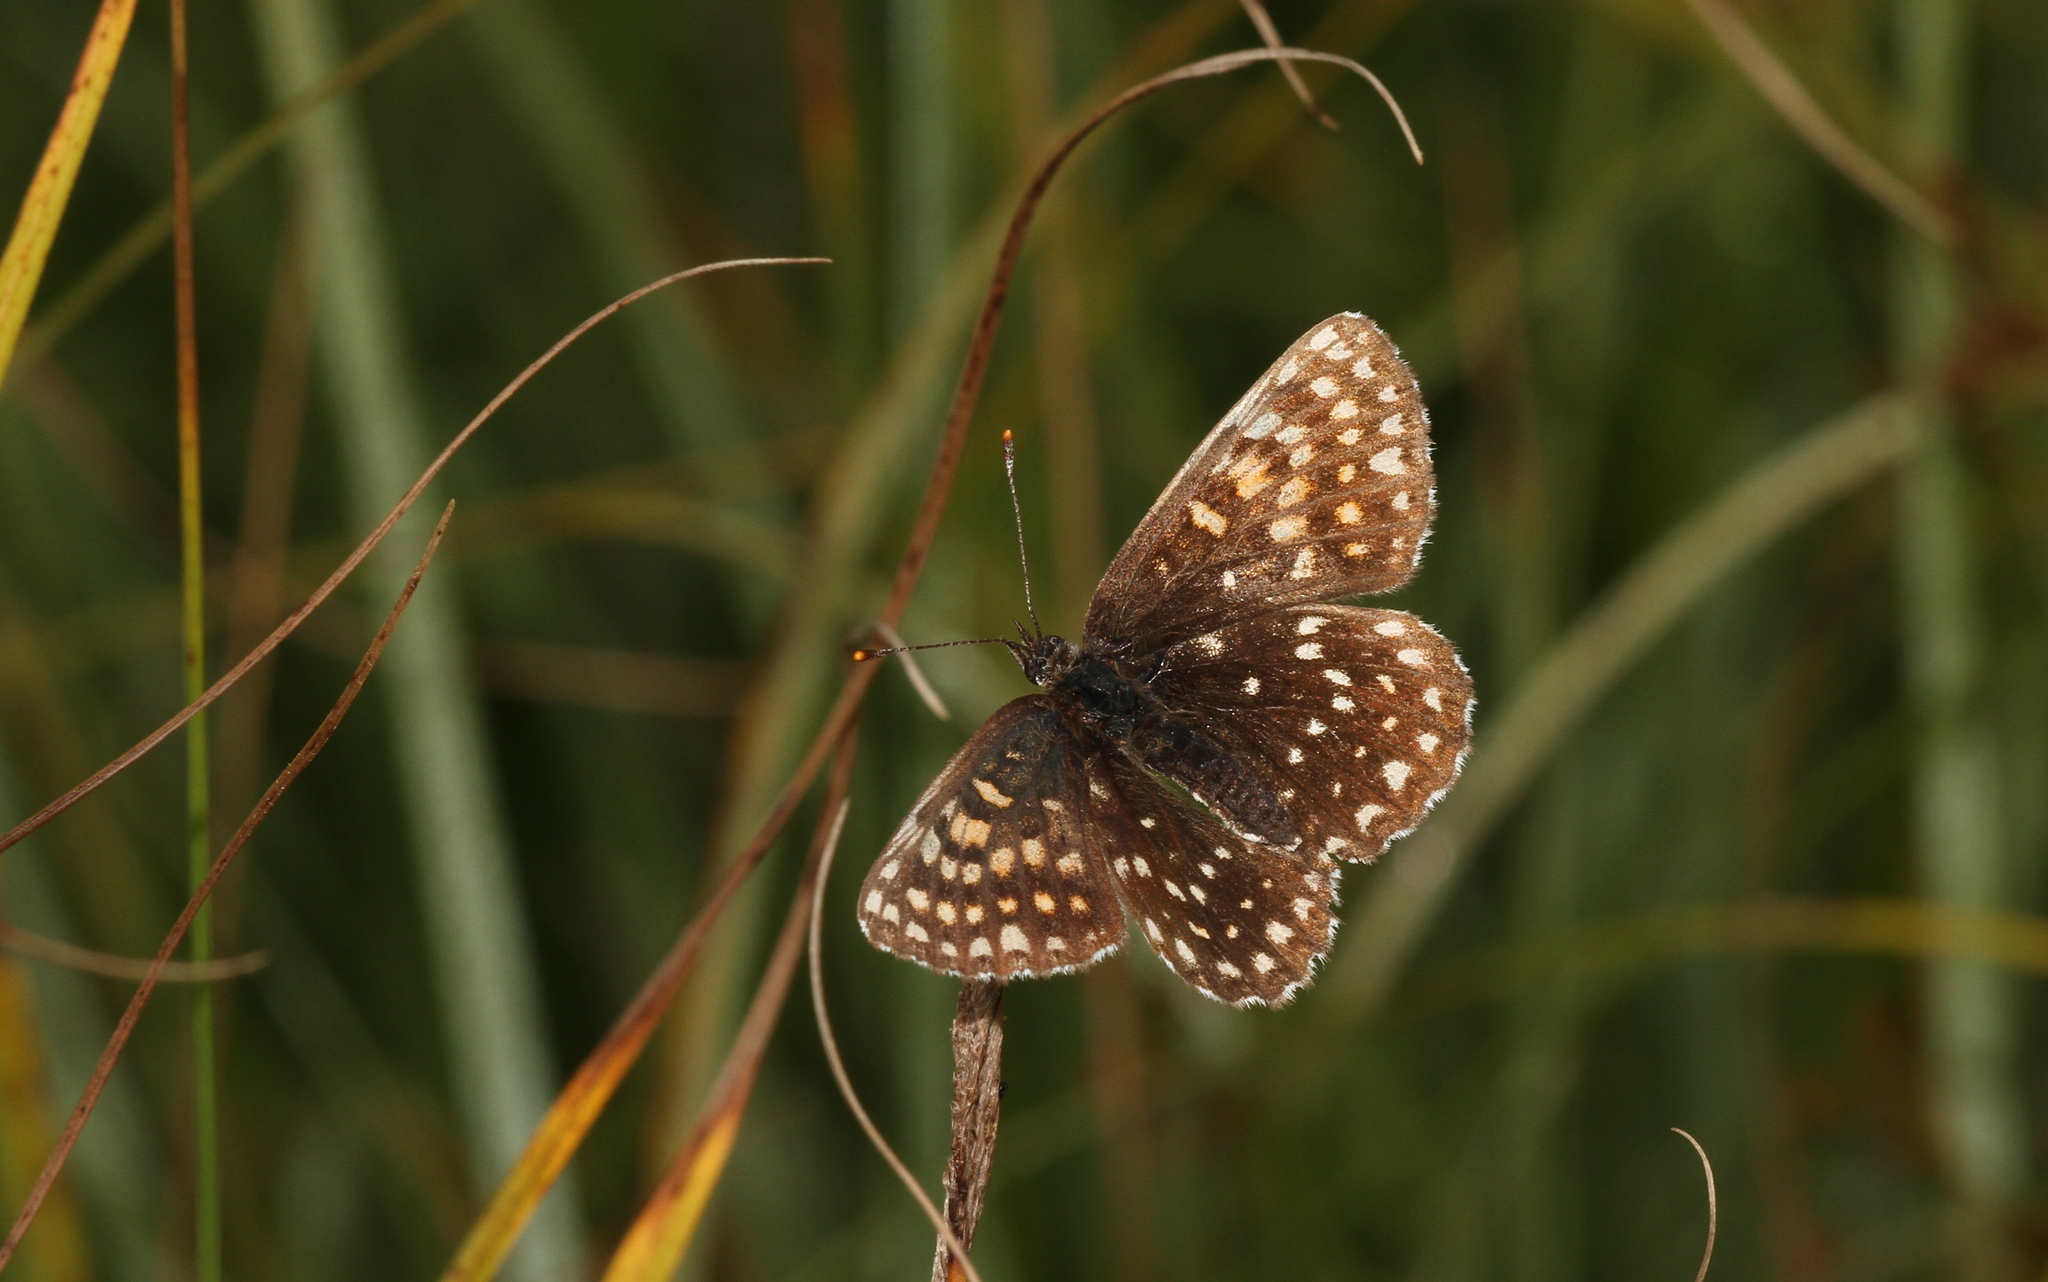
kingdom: Animalia
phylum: Arthropoda
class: Insecta
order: Lepidoptera
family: Nymphalidae
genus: Melitaea
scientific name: Melitaea diamina
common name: False heath fritillary
